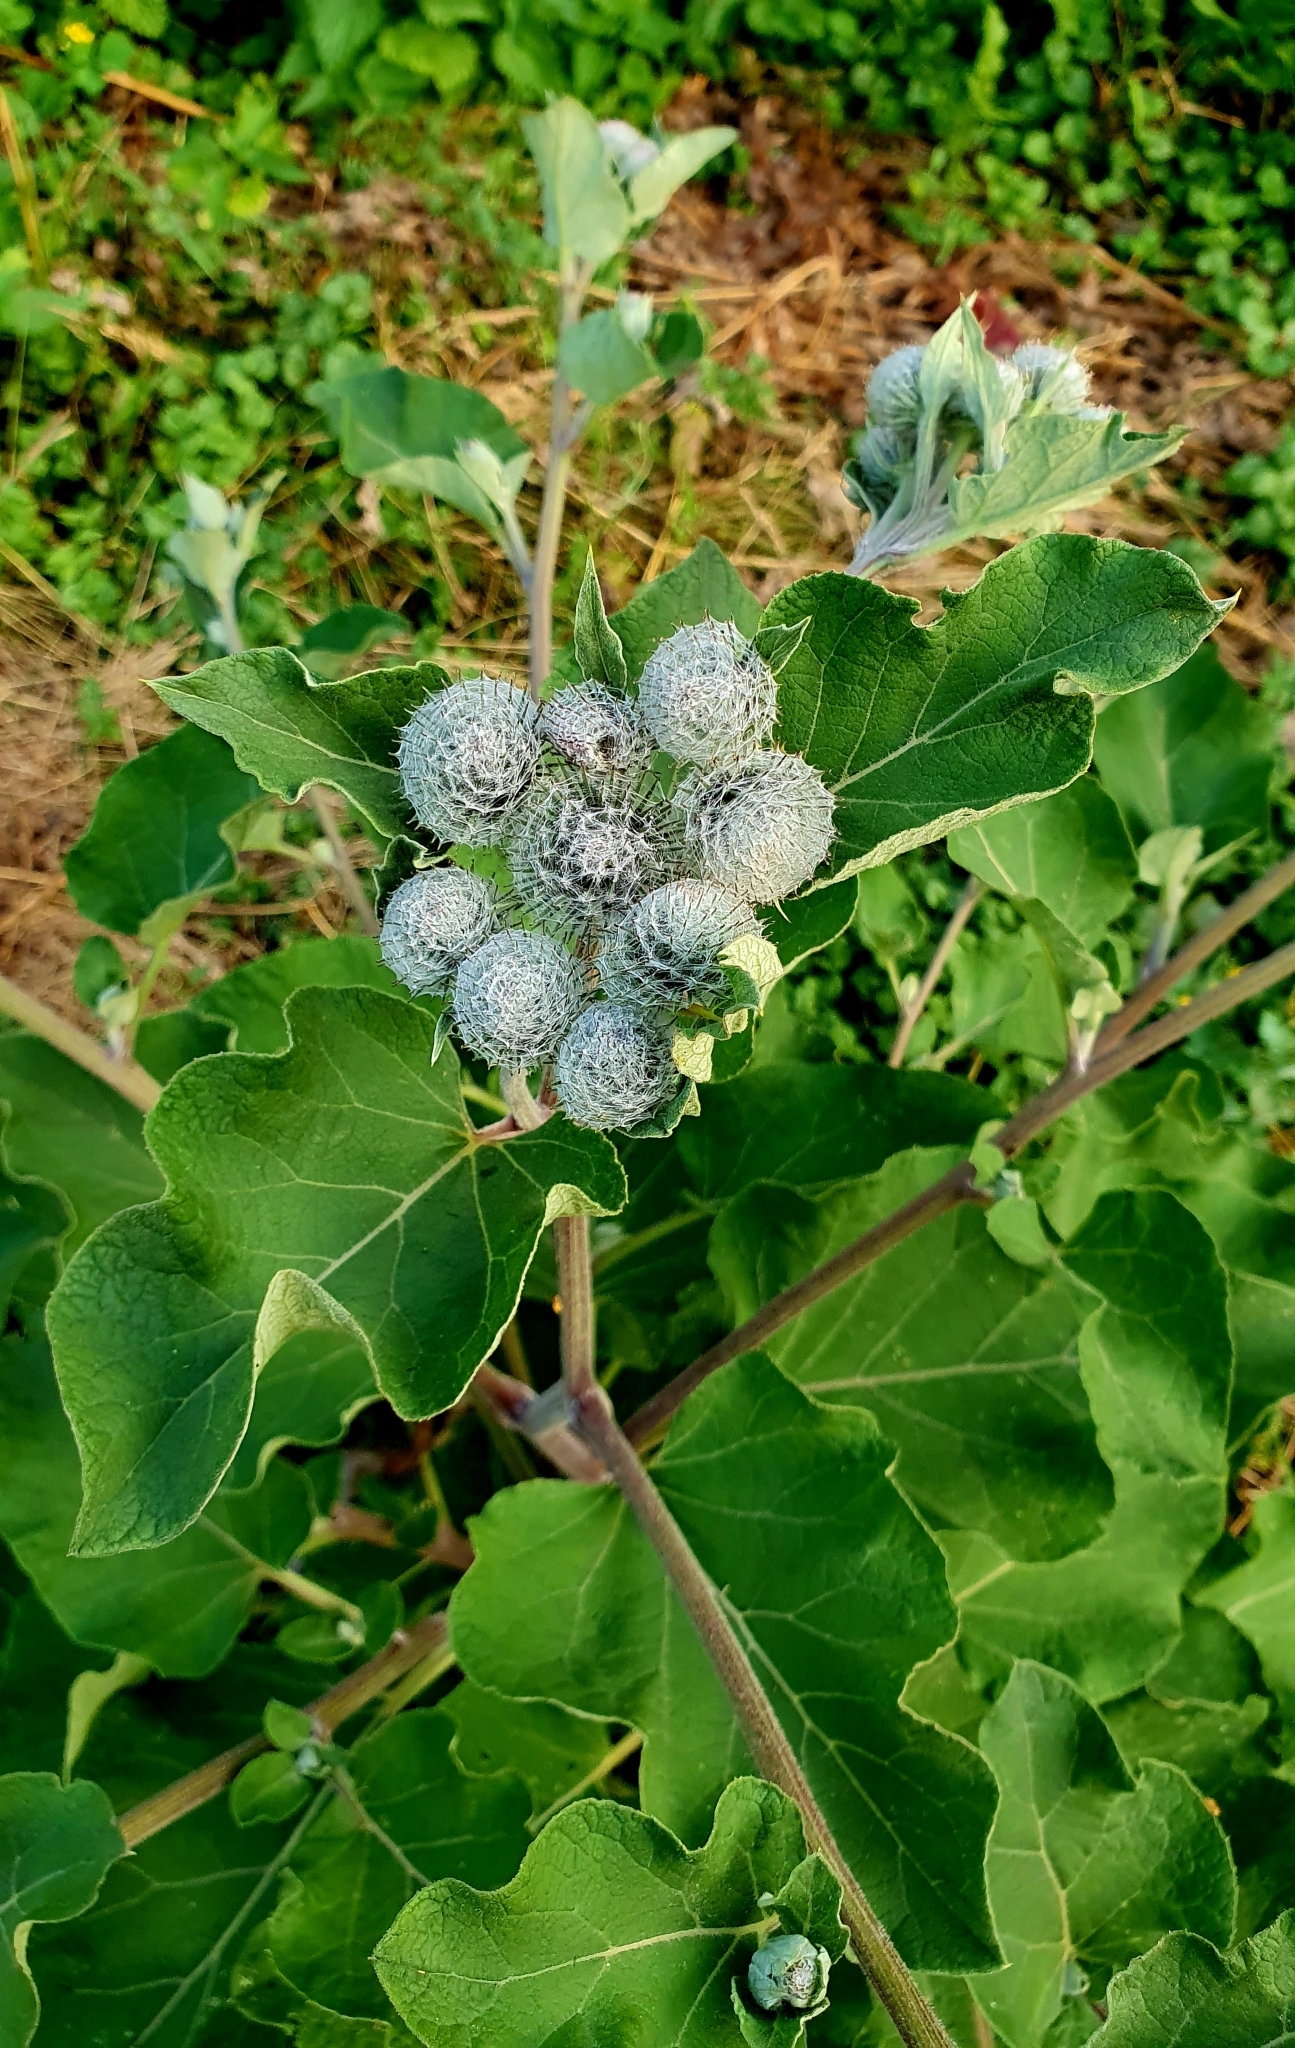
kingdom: Plantae
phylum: Tracheophyta
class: Magnoliopsida
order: Asterales
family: Asteraceae
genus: Arctium
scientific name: Arctium tomentosum
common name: Woolly burdock
